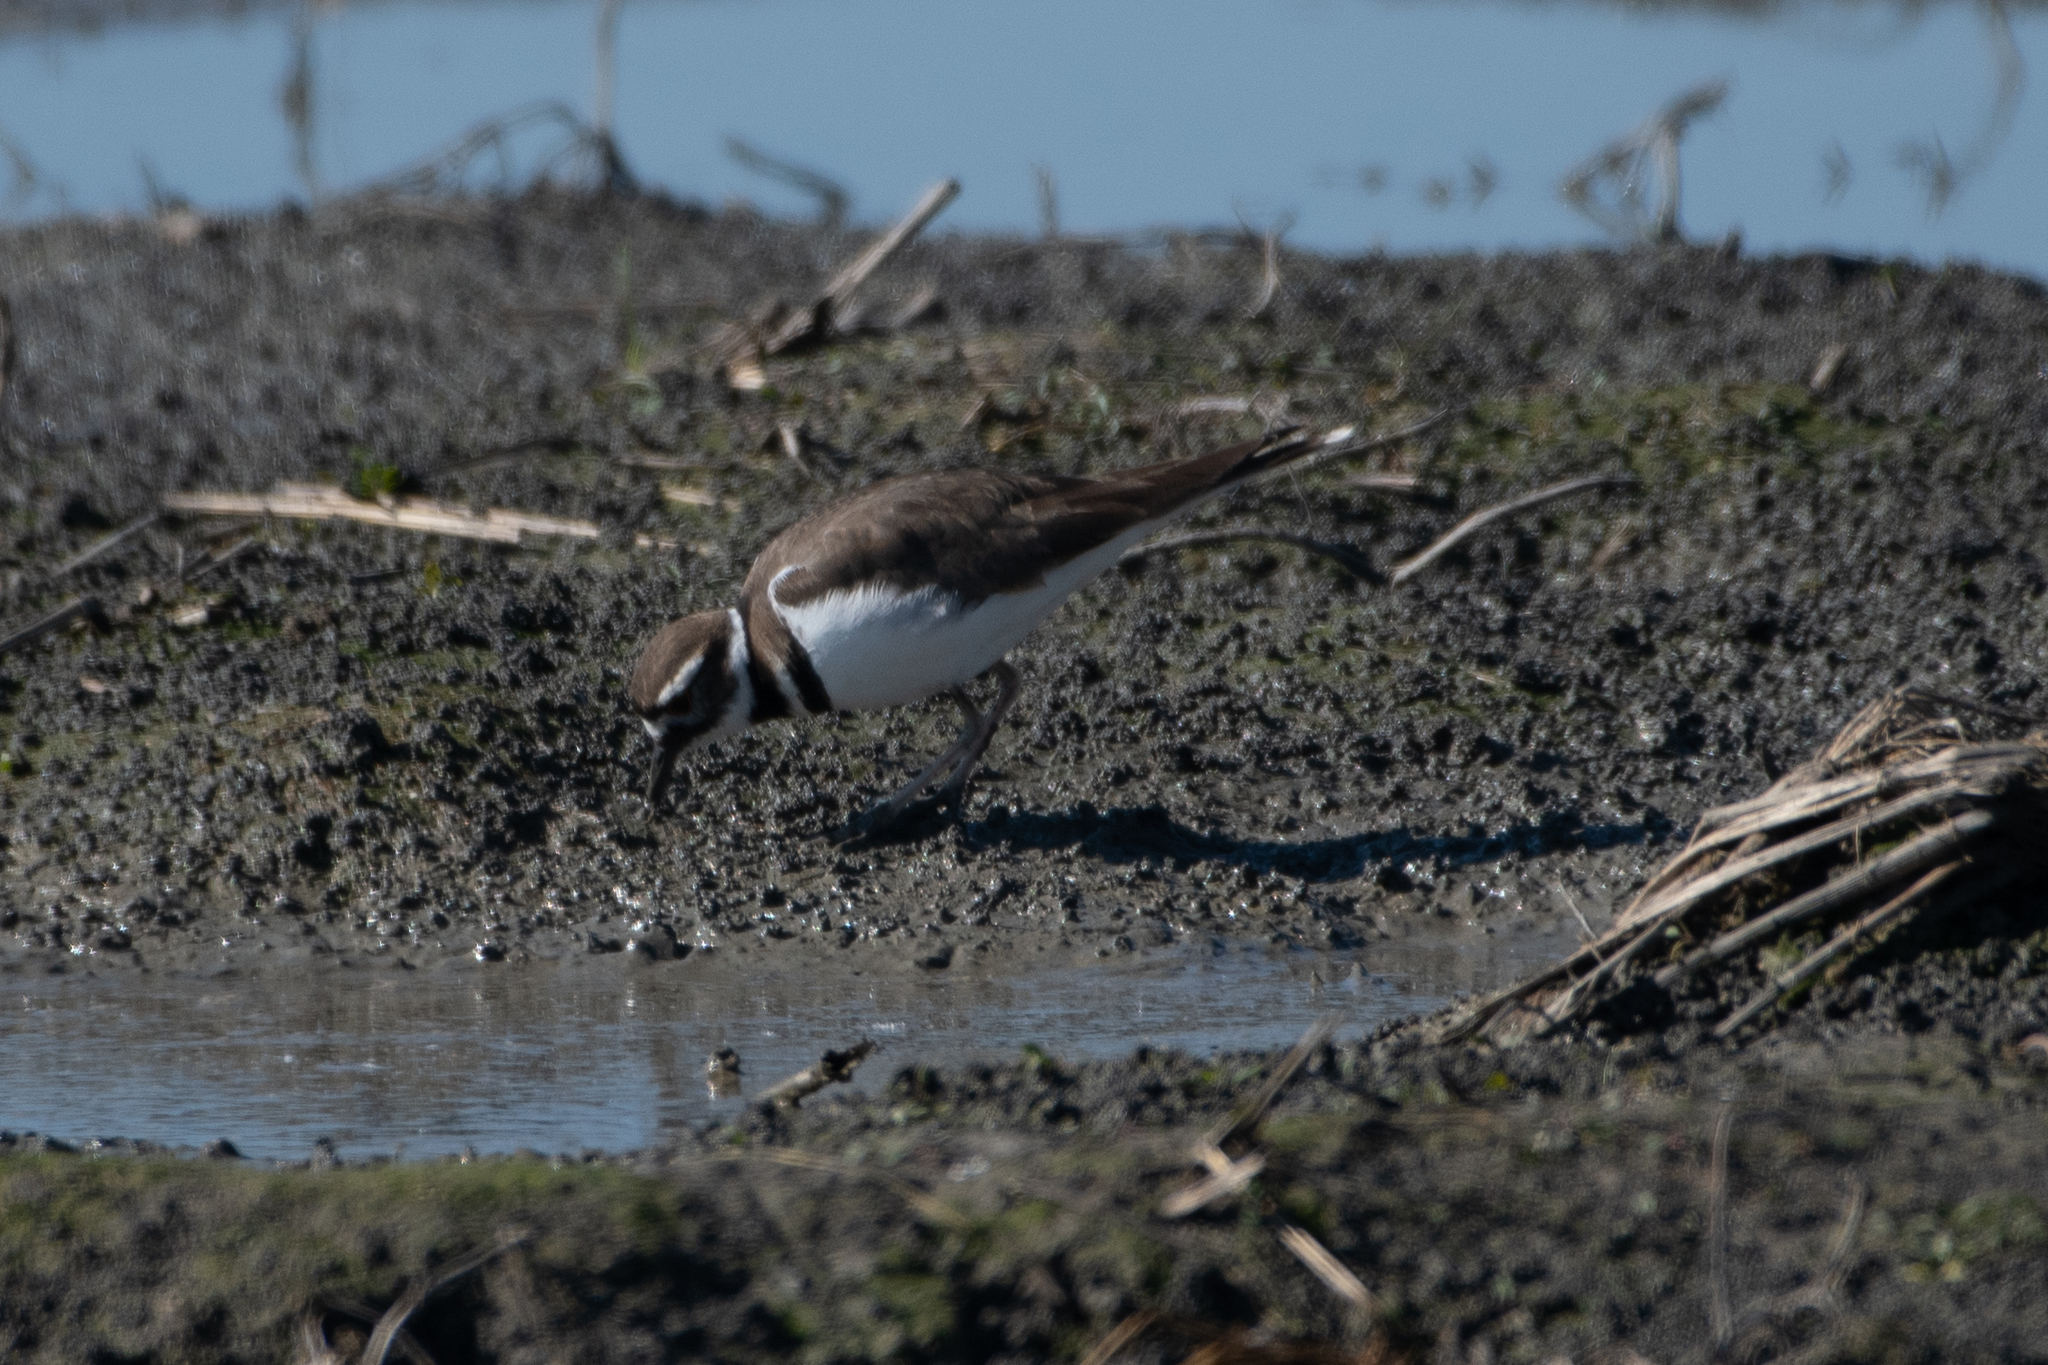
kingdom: Animalia
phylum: Chordata
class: Aves
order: Charadriiformes
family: Charadriidae
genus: Charadrius
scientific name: Charadrius vociferus
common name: Killdeer
